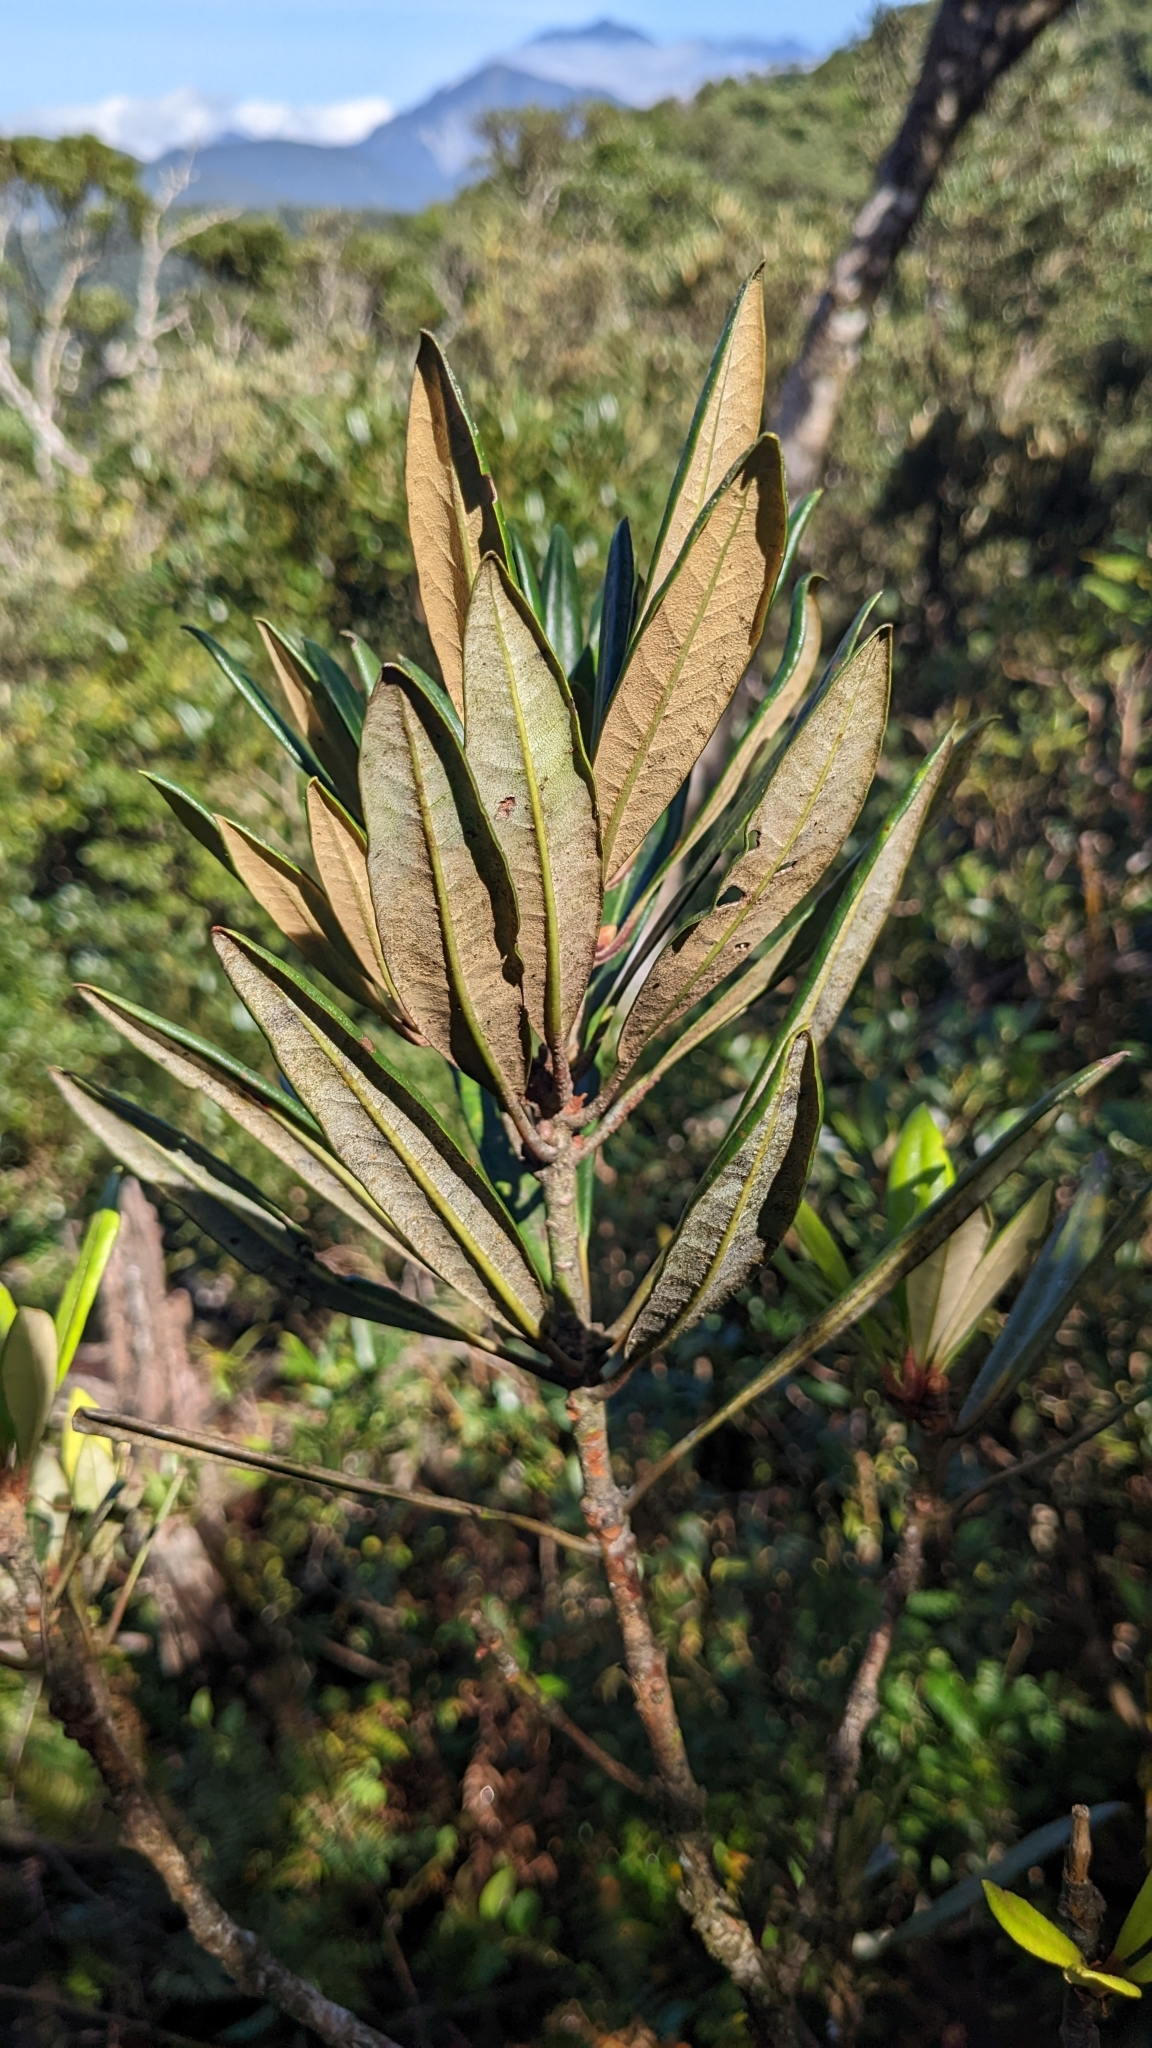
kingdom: Plantae
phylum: Tracheophyta
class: Magnoliopsida
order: Ericales
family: Ericaceae
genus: Rhododendron
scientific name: Rhododendron formosanum
